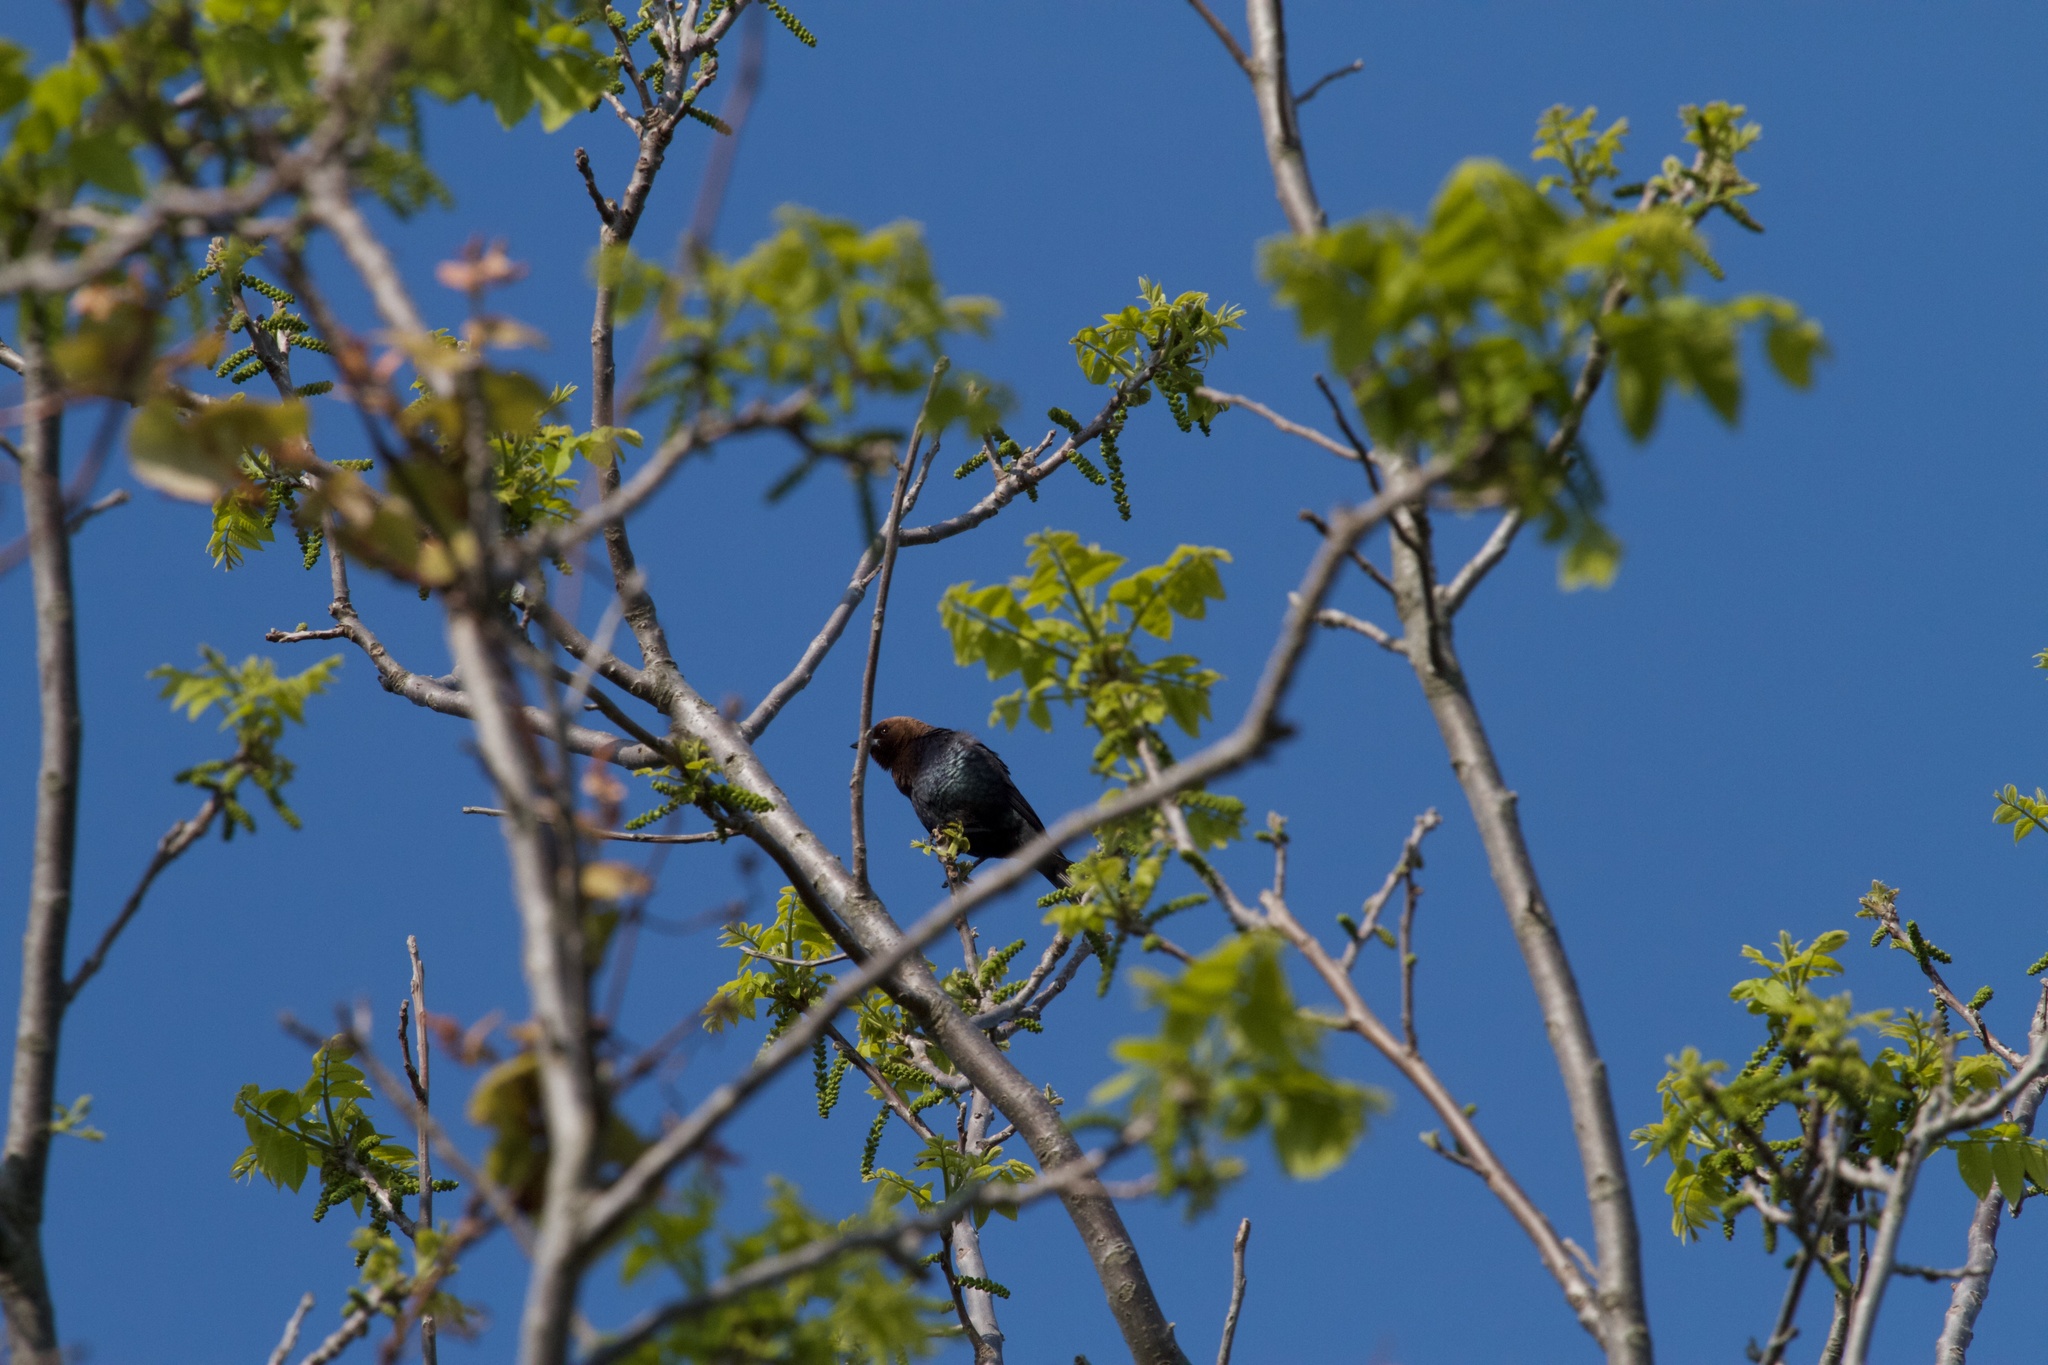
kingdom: Animalia
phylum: Chordata
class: Aves
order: Passeriformes
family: Icteridae
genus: Molothrus
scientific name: Molothrus ater
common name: Brown-headed cowbird
